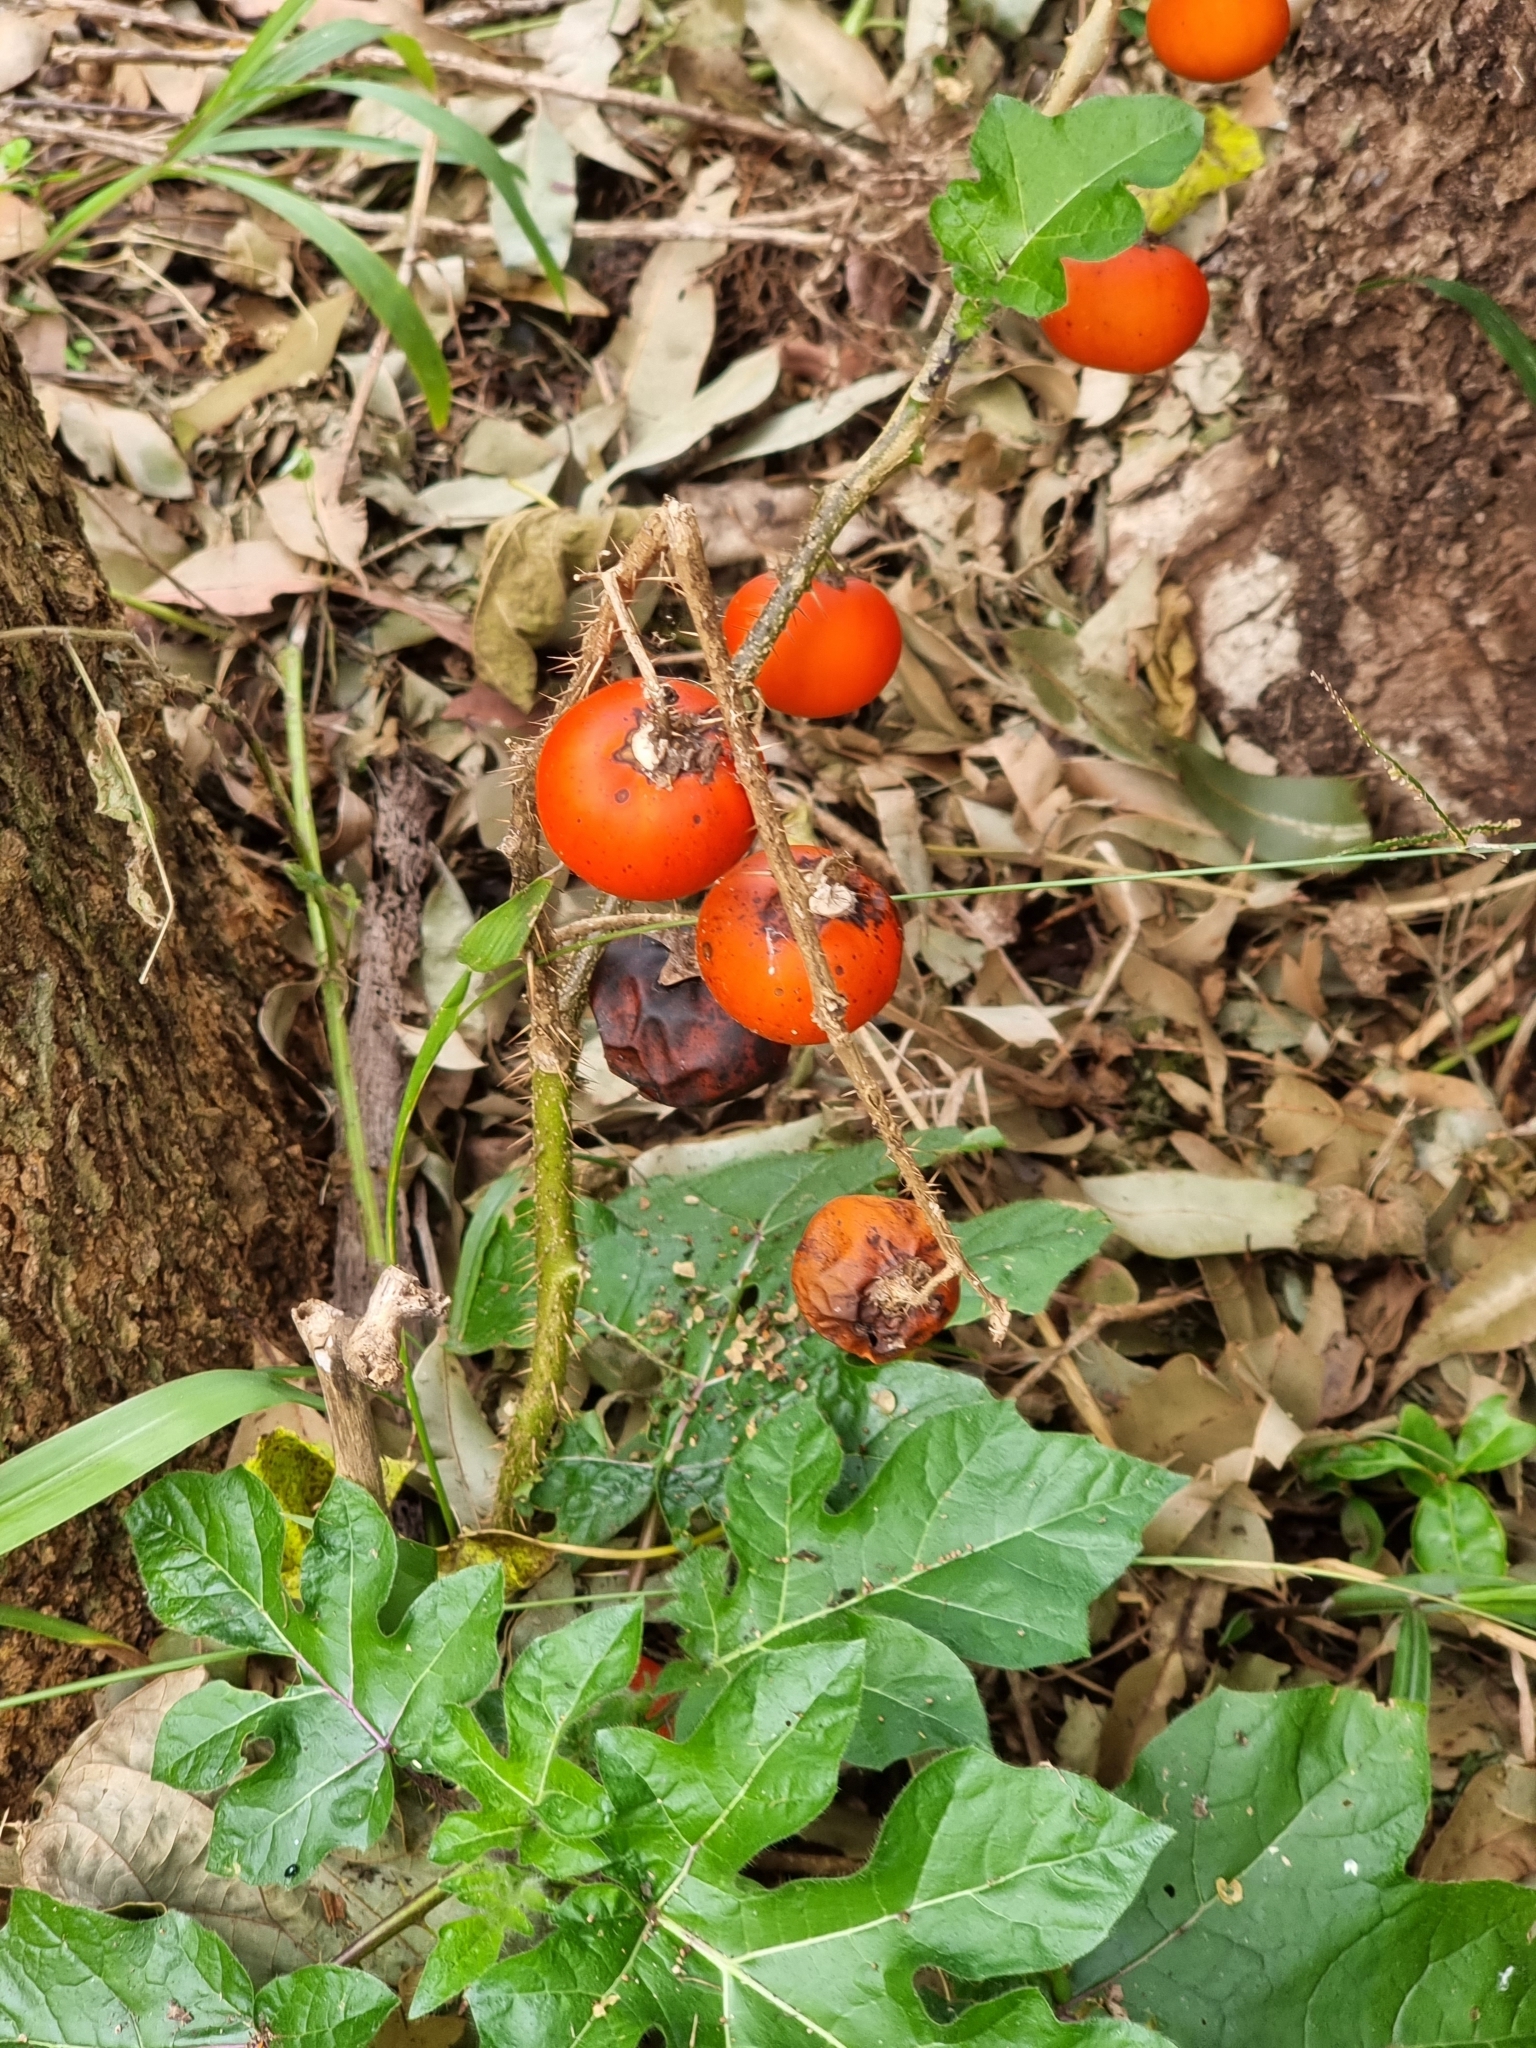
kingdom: Plantae
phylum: Tracheophyta
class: Magnoliopsida
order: Solanales
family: Solanaceae
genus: Solanum
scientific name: Solanum capsicoides
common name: Cockroach berry
